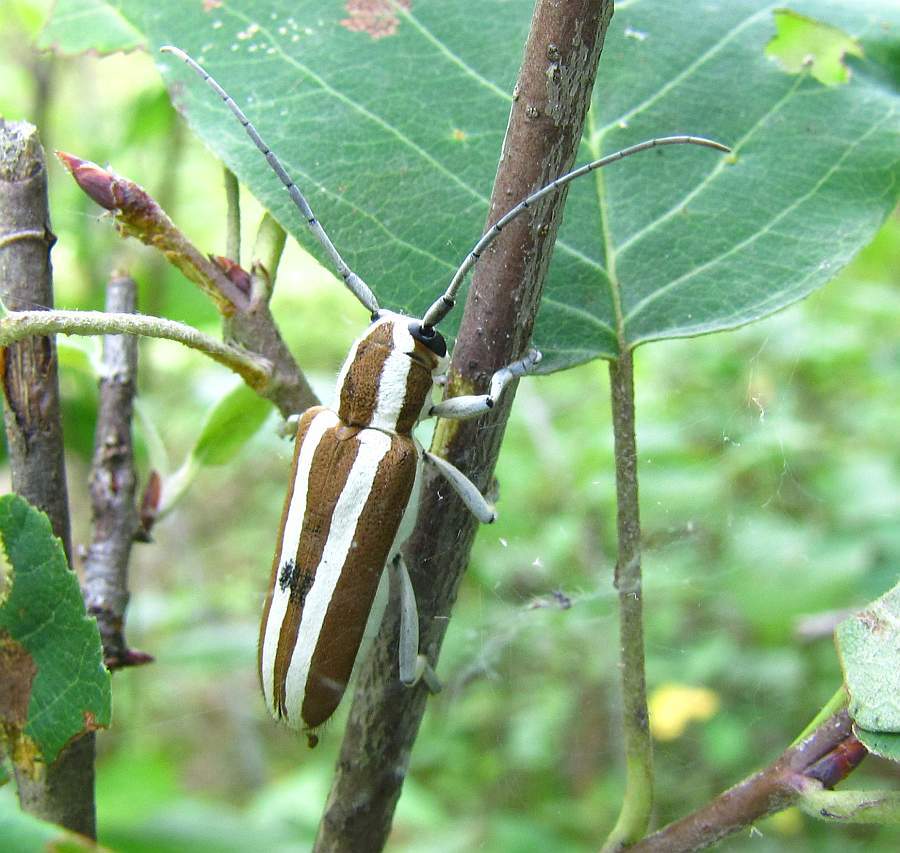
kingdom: Animalia
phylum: Arthropoda
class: Insecta
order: Coleoptera
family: Cerambycidae
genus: Saperda
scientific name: Saperda candida
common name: Round-headed borer
